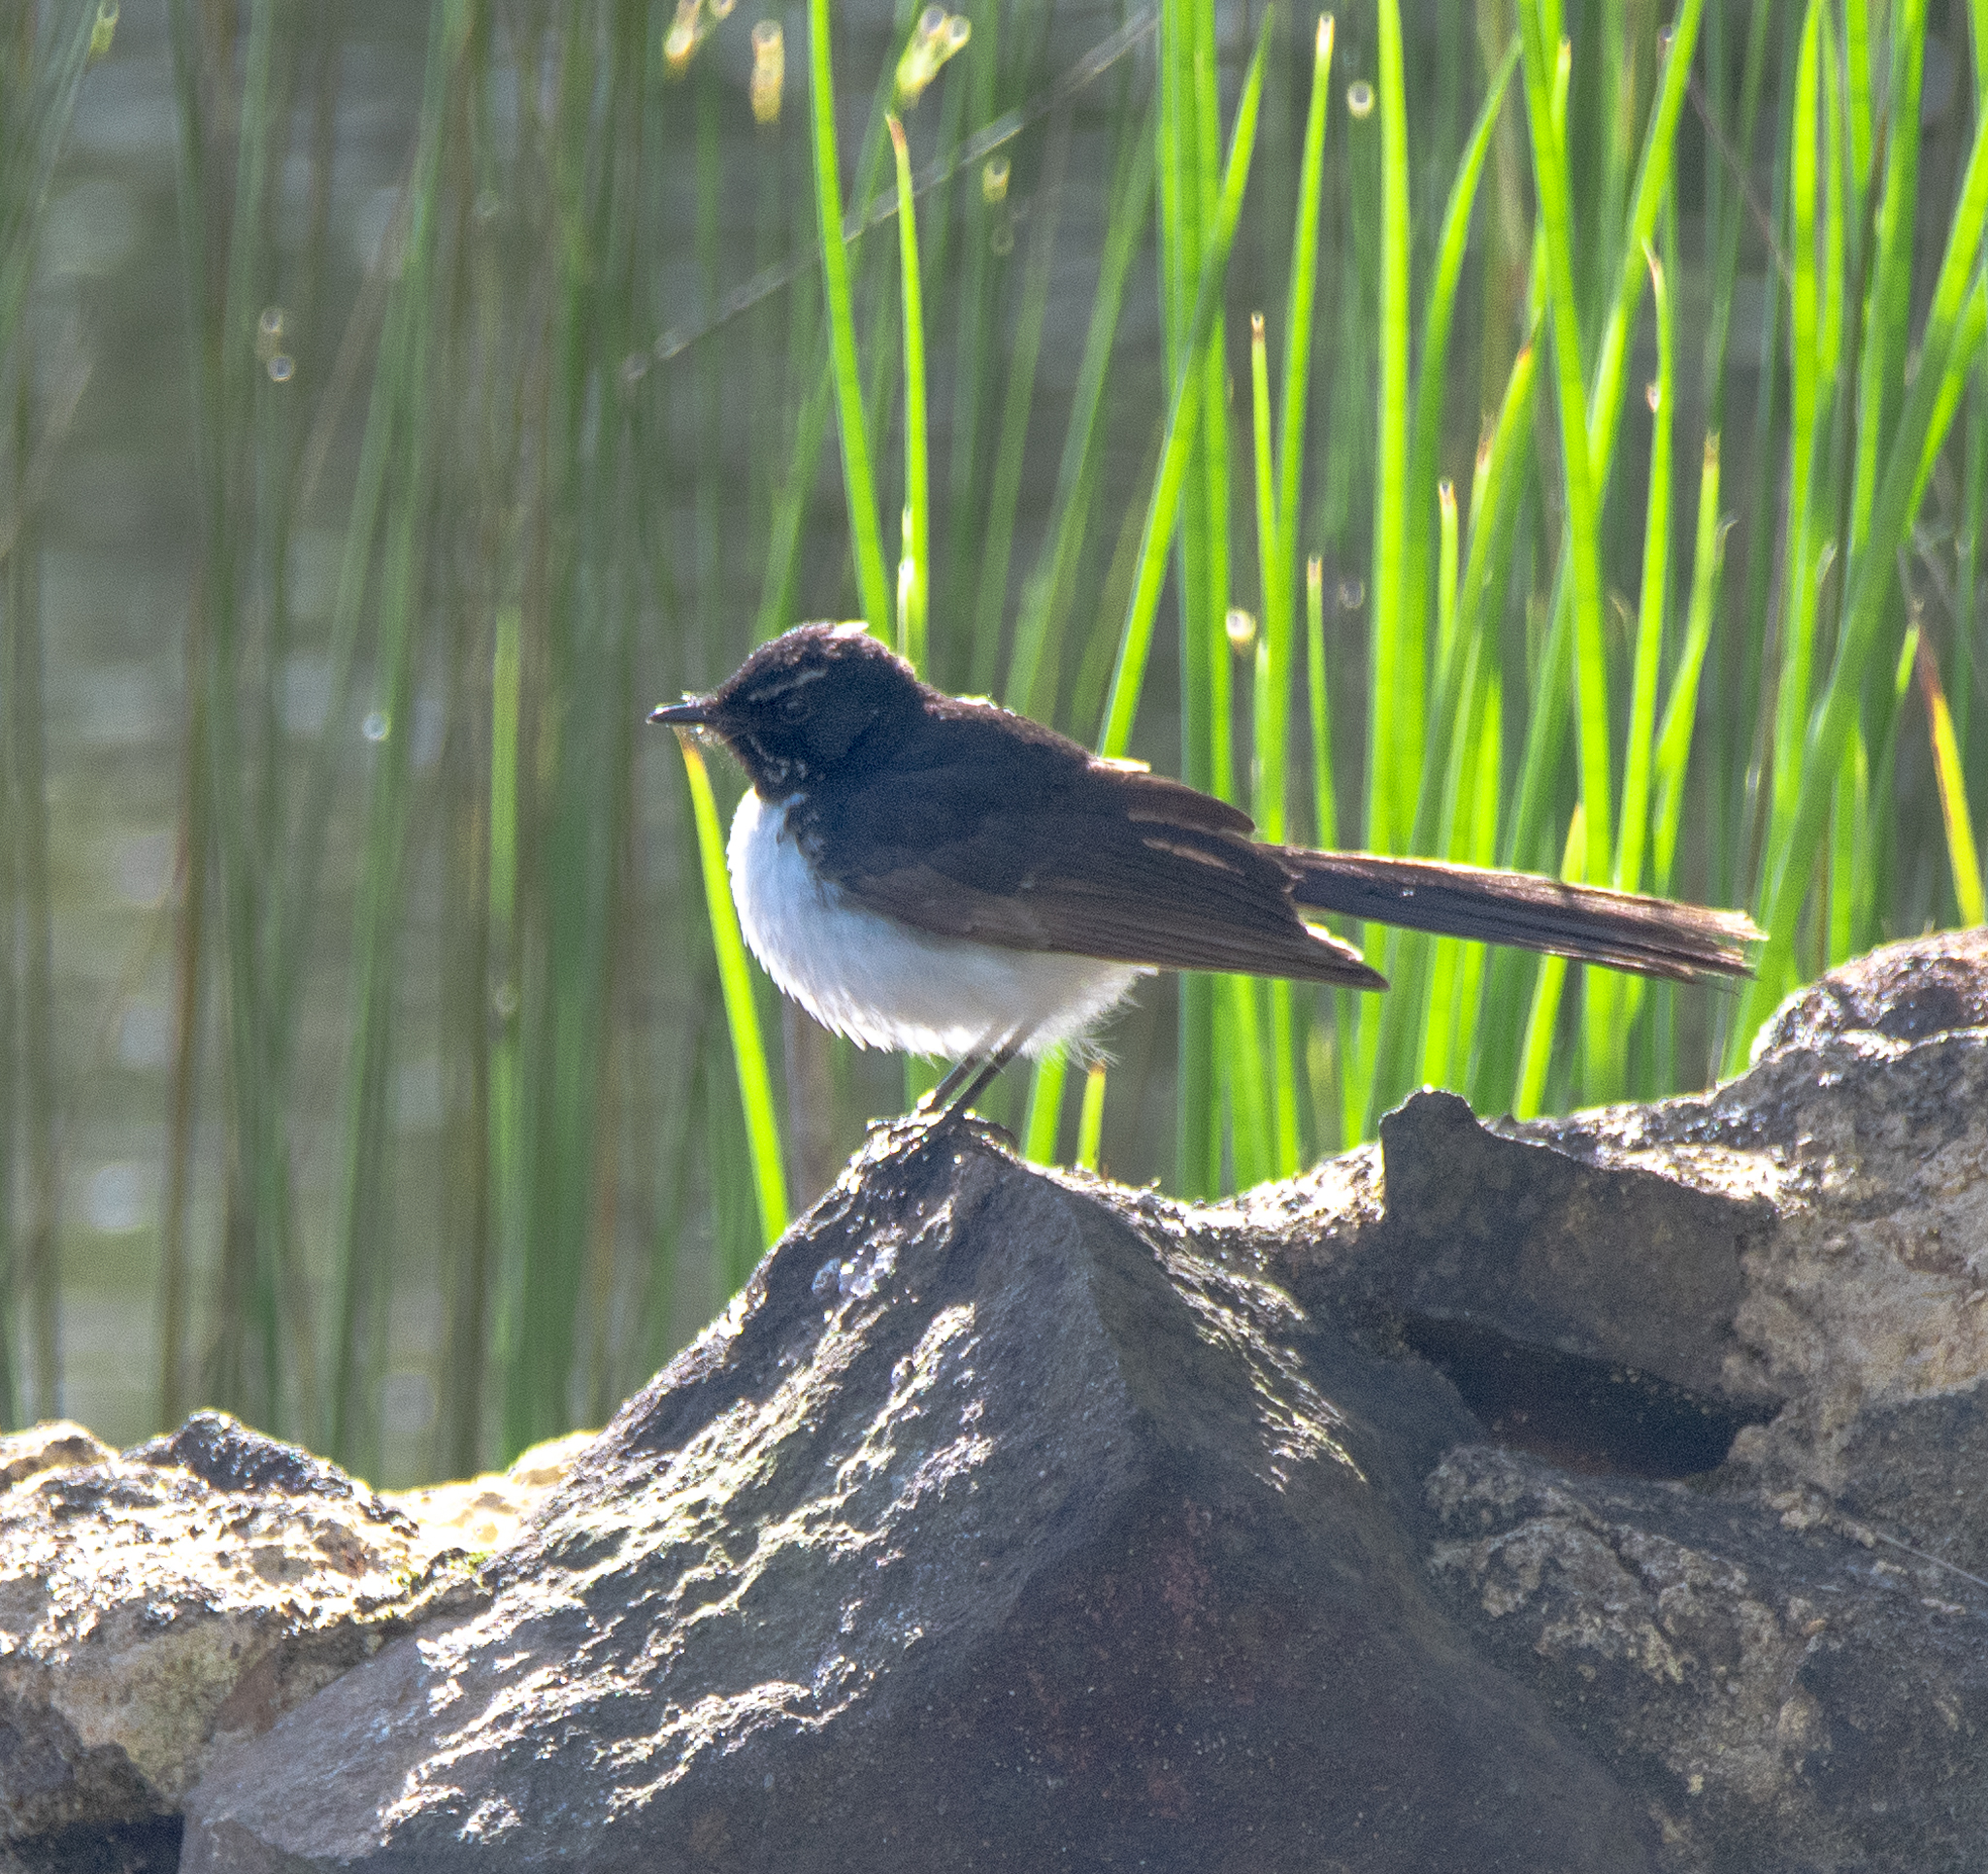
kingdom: Animalia
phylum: Chordata
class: Aves
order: Passeriformes
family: Rhipiduridae
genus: Rhipidura
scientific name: Rhipidura leucophrys
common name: Willie wagtail
